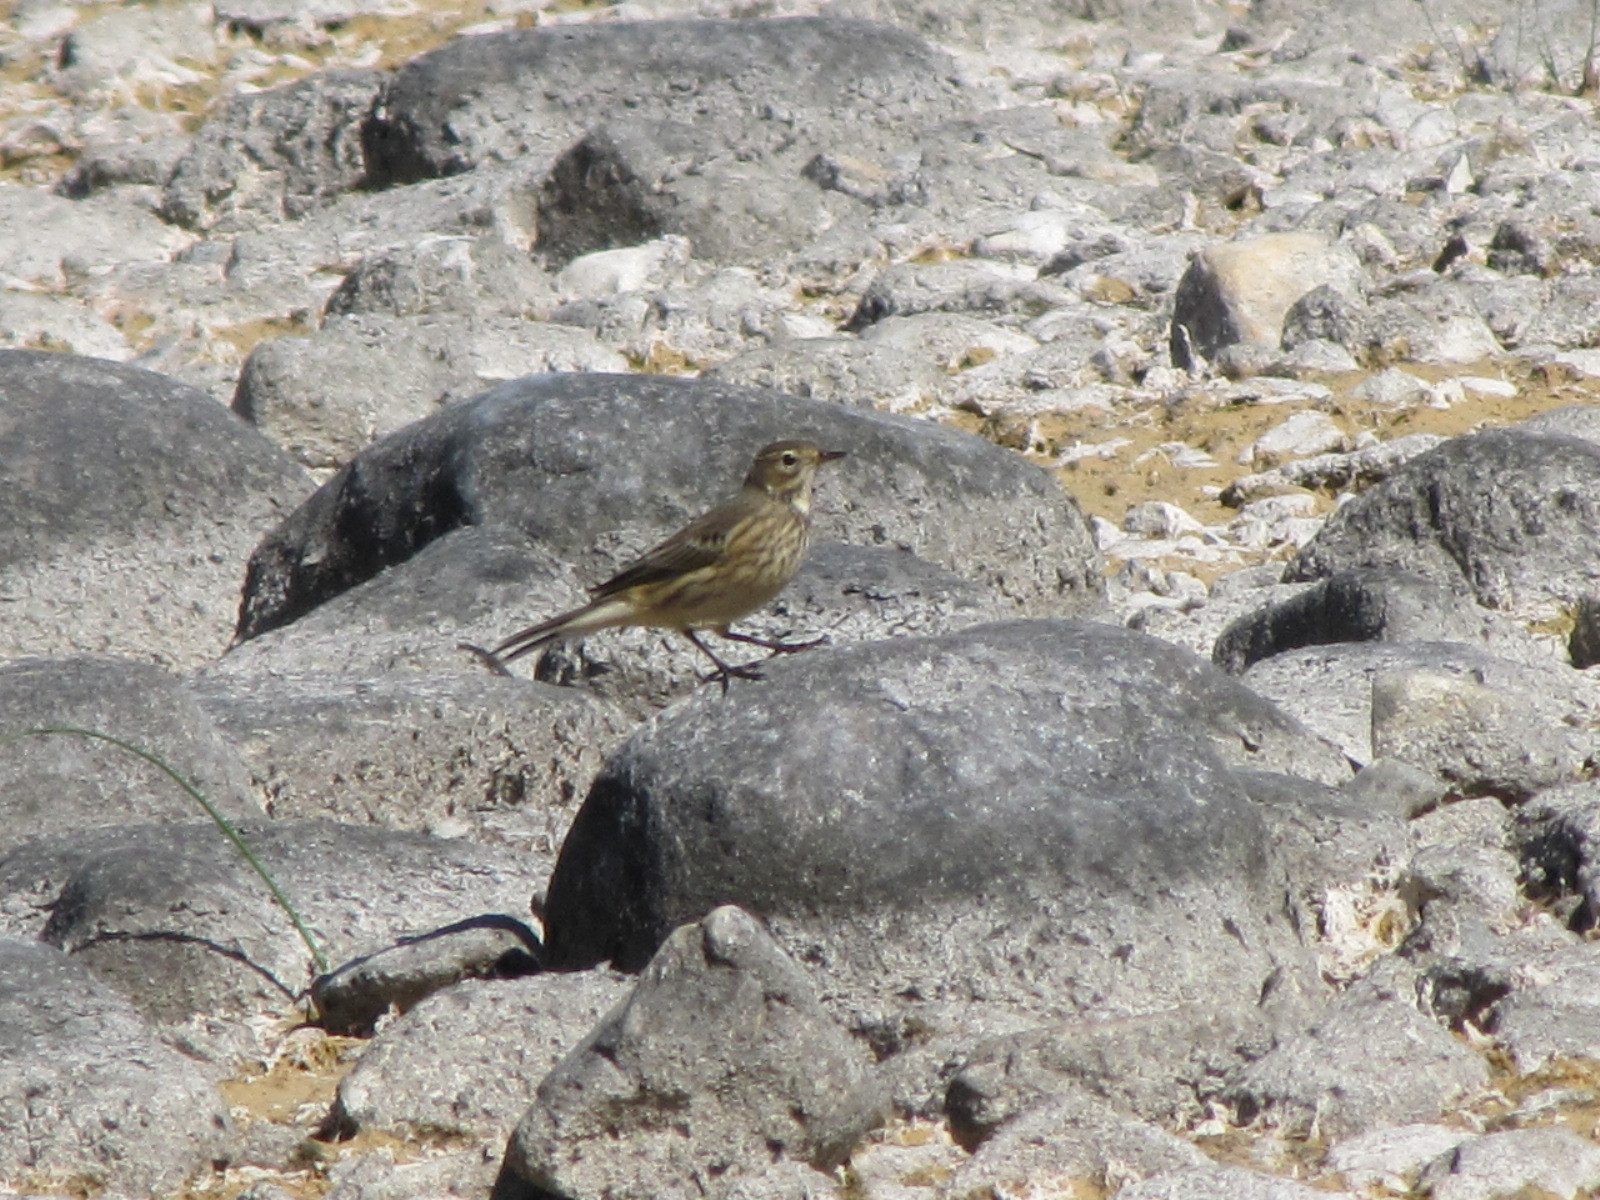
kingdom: Animalia
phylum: Chordata
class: Aves
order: Passeriformes
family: Motacillidae
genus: Anthus
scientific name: Anthus rubescens
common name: Buff-bellied pipit
